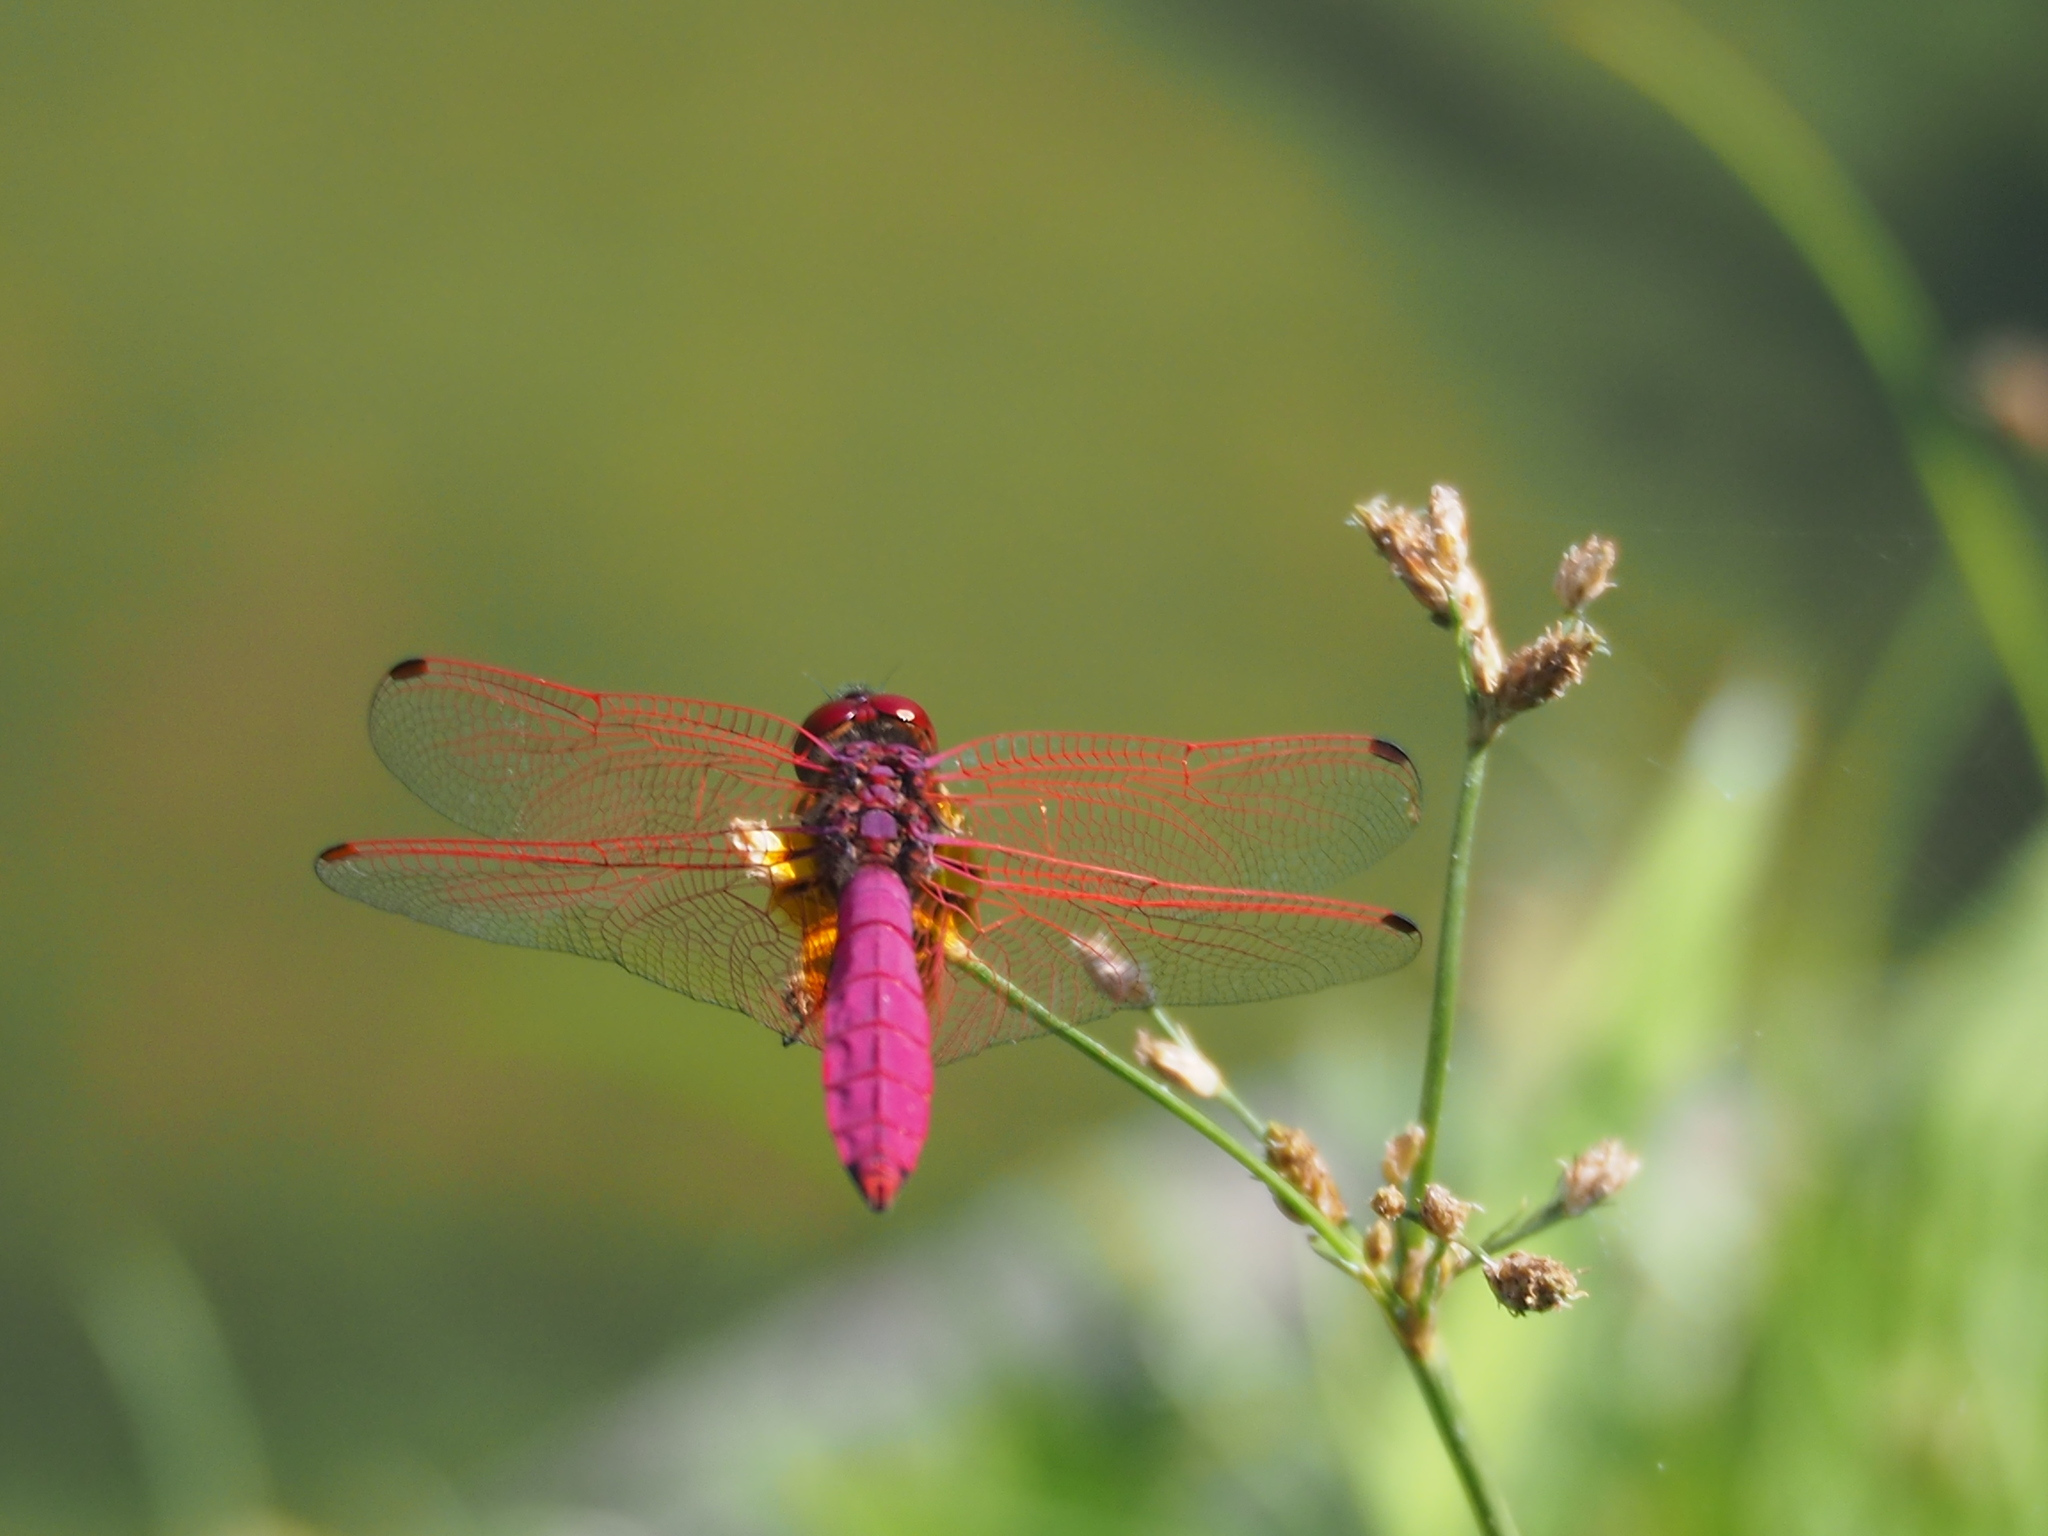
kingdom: Animalia
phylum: Arthropoda
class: Insecta
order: Odonata
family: Libellulidae
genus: Trithemis
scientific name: Trithemis aurora
